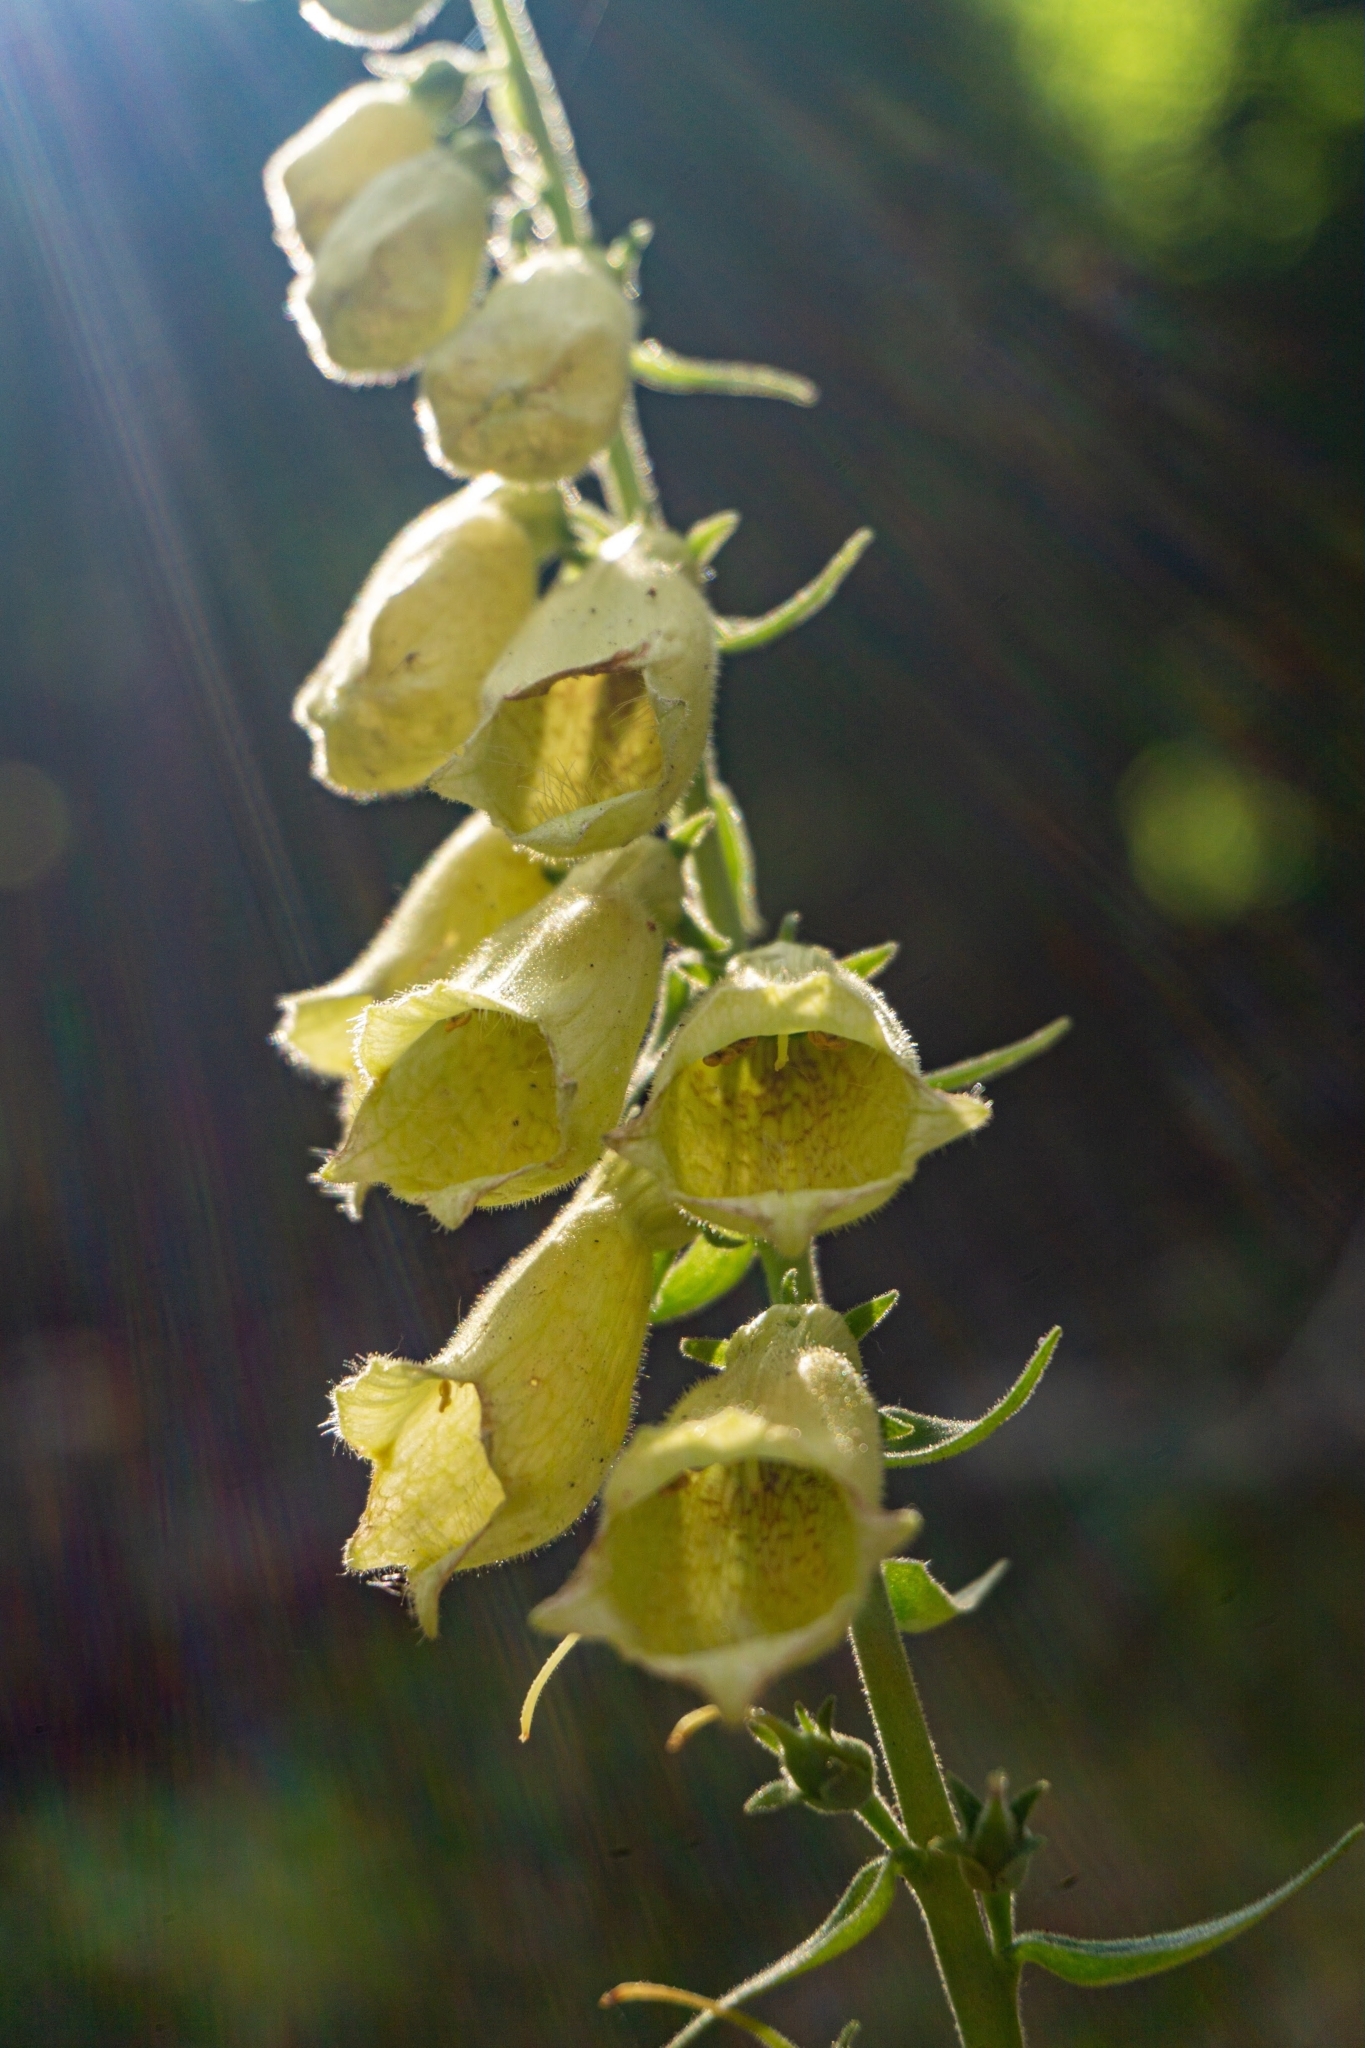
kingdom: Plantae
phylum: Tracheophyta
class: Magnoliopsida
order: Lamiales
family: Plantaginaceae
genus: Digitalis
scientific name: Digitalis grandiflora
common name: Yellow foxglove
